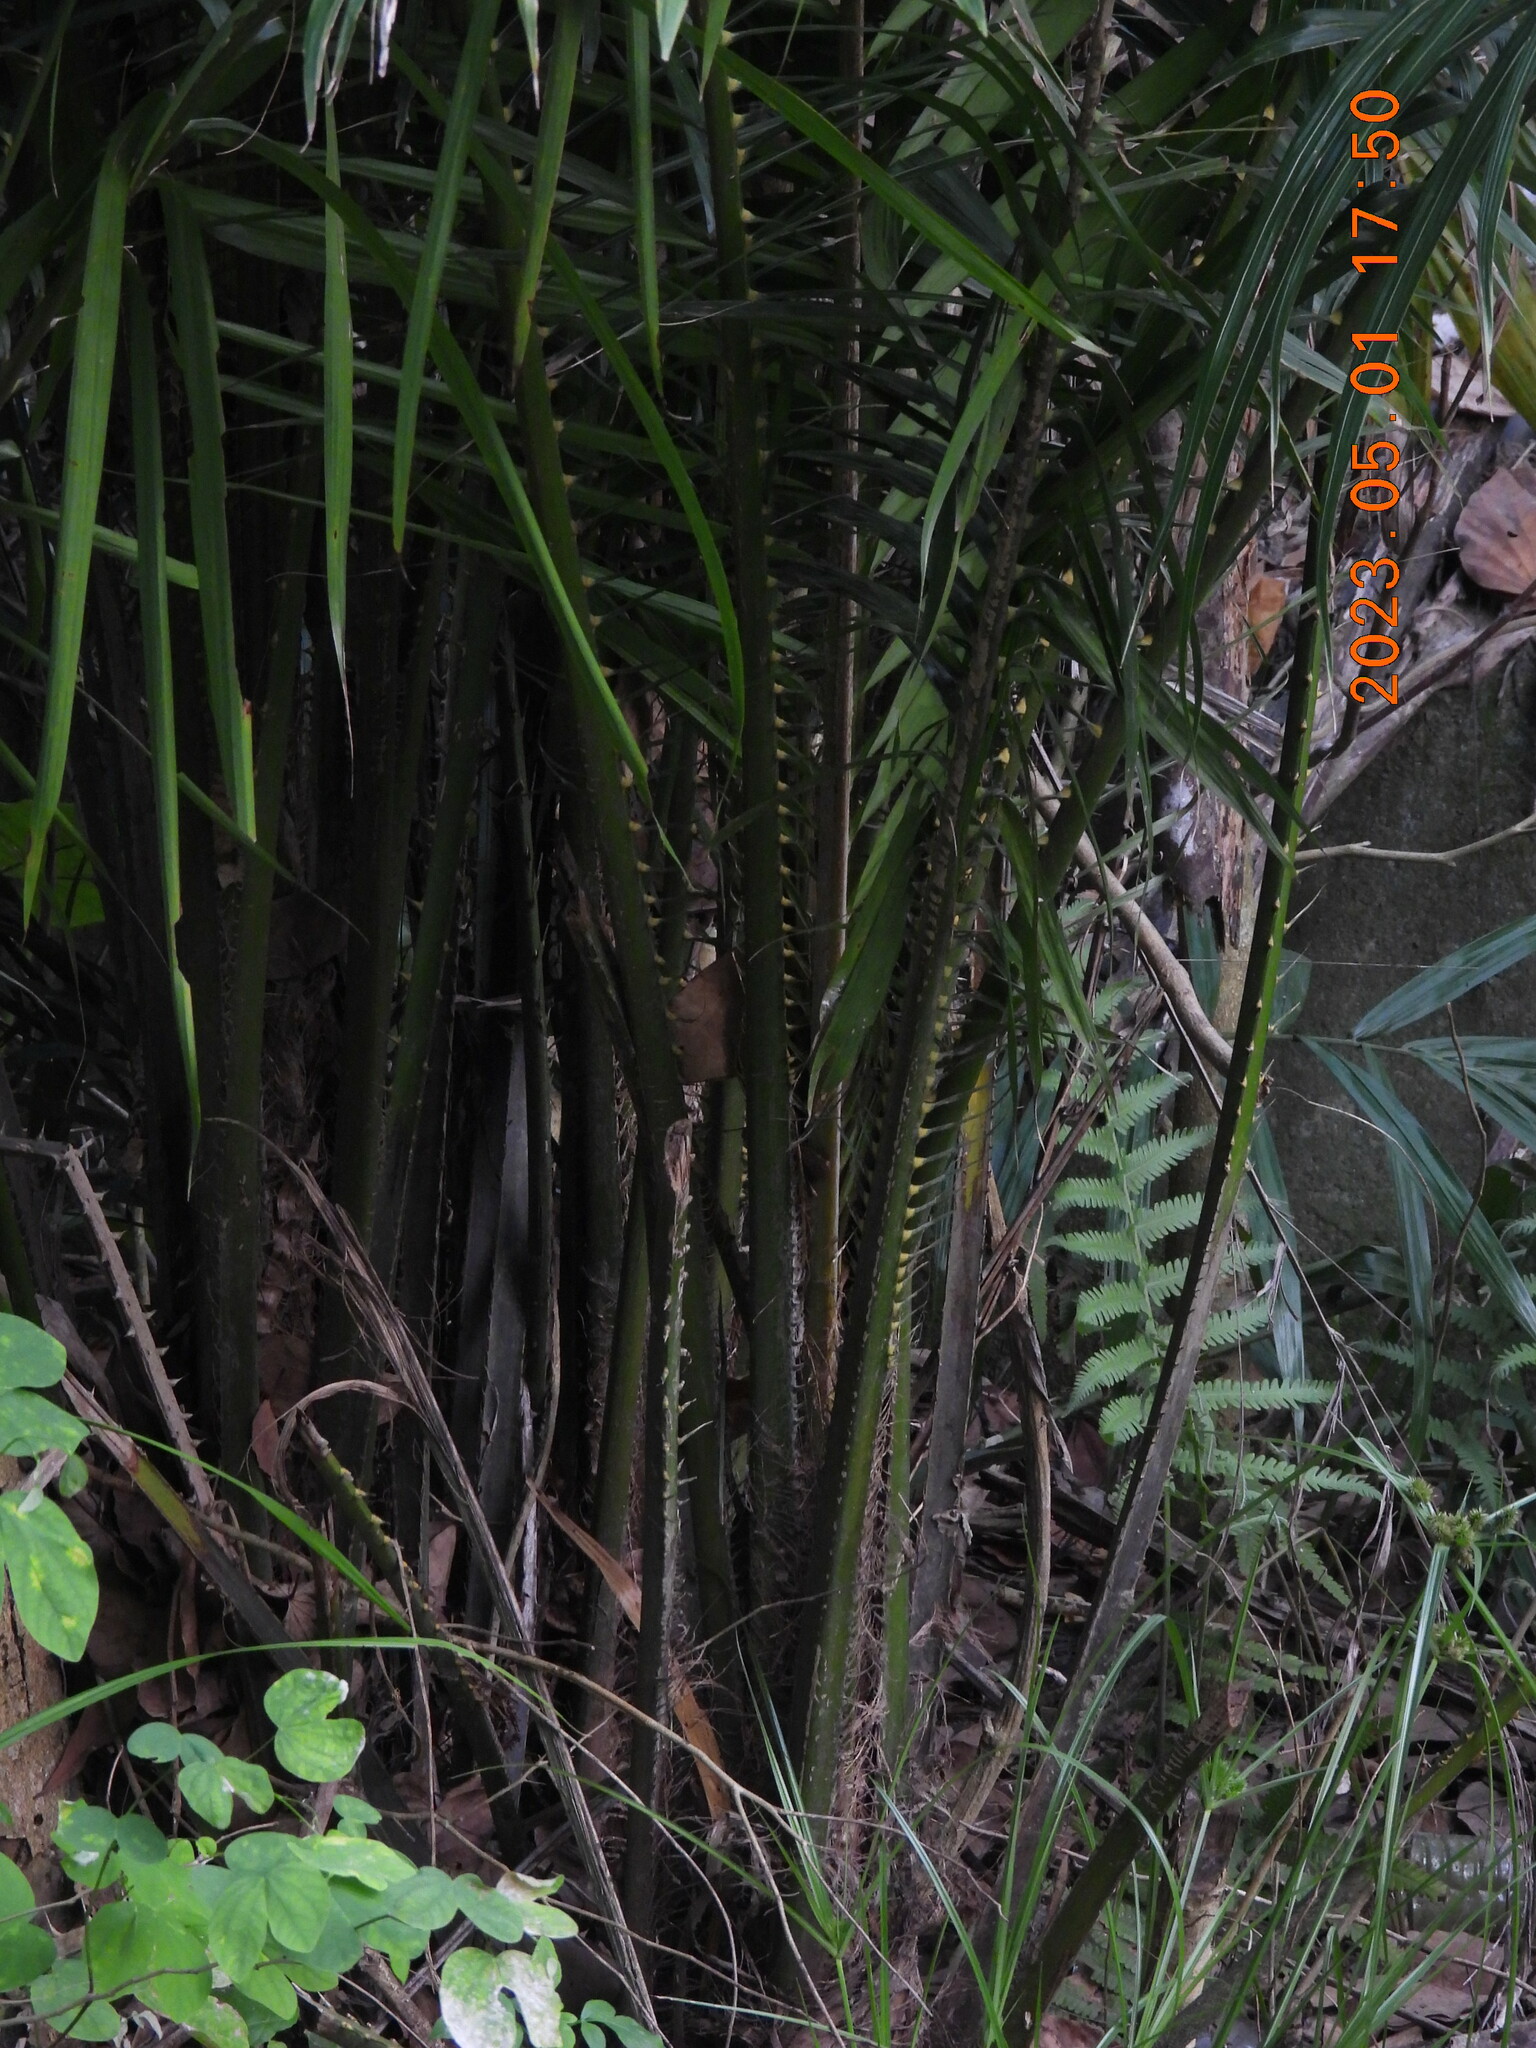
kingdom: Plantae
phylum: Tracheophyta
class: Liliopsida
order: Arecales
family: Arecaceae
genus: Arenga
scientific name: Arenga engleri
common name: Formosan sugar palm
